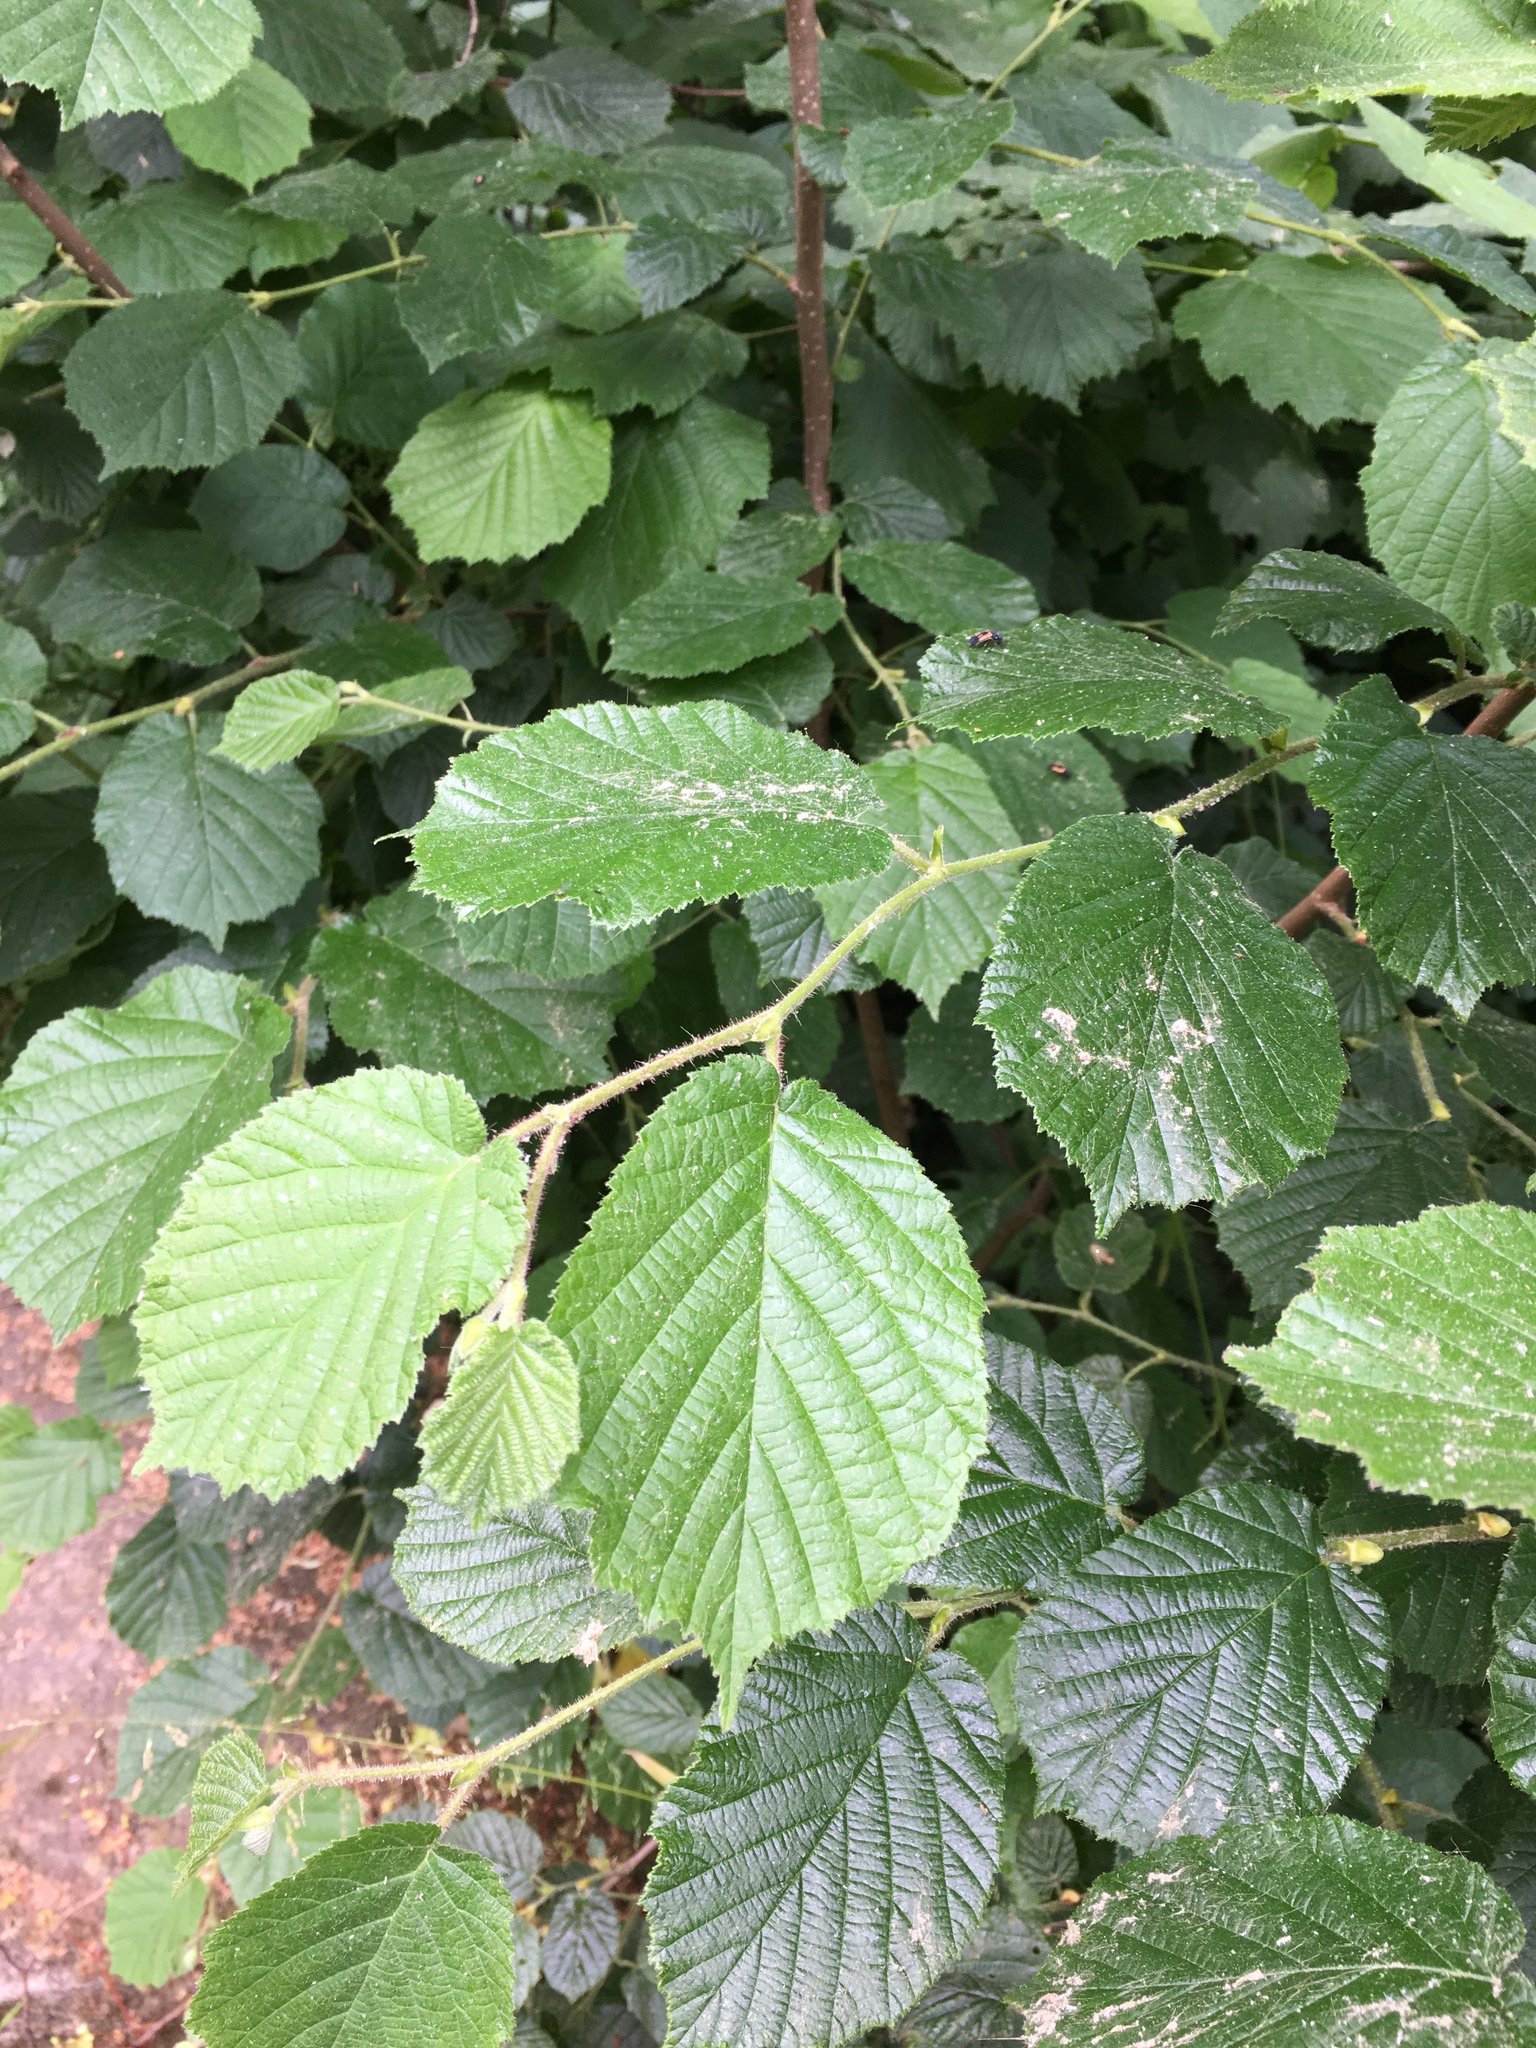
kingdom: Plantae
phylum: Tracheophyta
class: Magnoliopsida
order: Fagales
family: Betulaceae
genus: Corylus
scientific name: Corylus avellana
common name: European hazel
